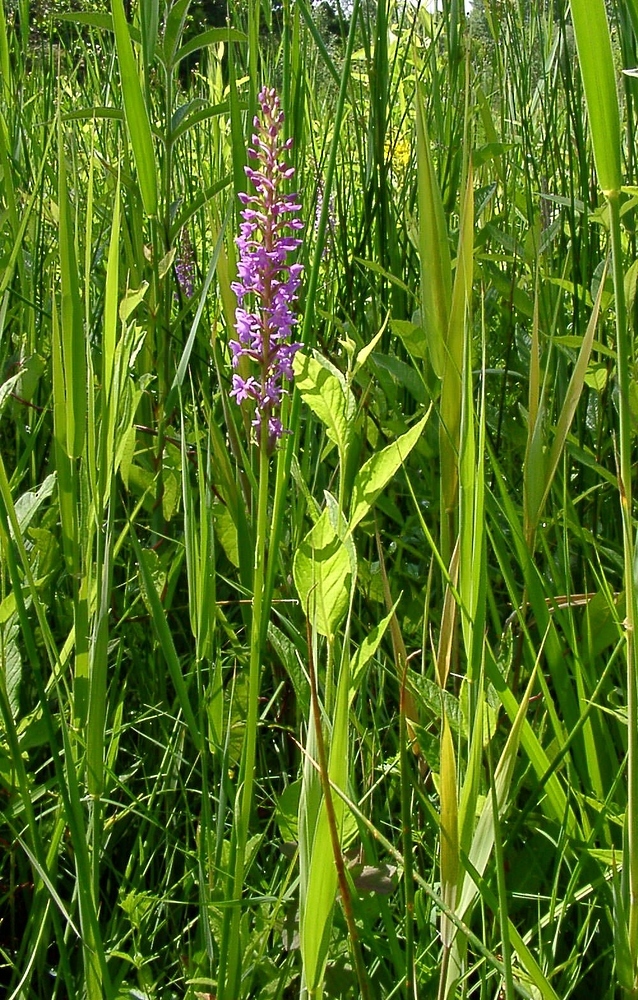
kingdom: Plantae
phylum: Tracheophyta
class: Liliopsida
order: Asparagales
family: Orchidaceae
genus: Gymnadenia
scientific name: Gymnadenia conopsea
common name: Fragrant orchid
